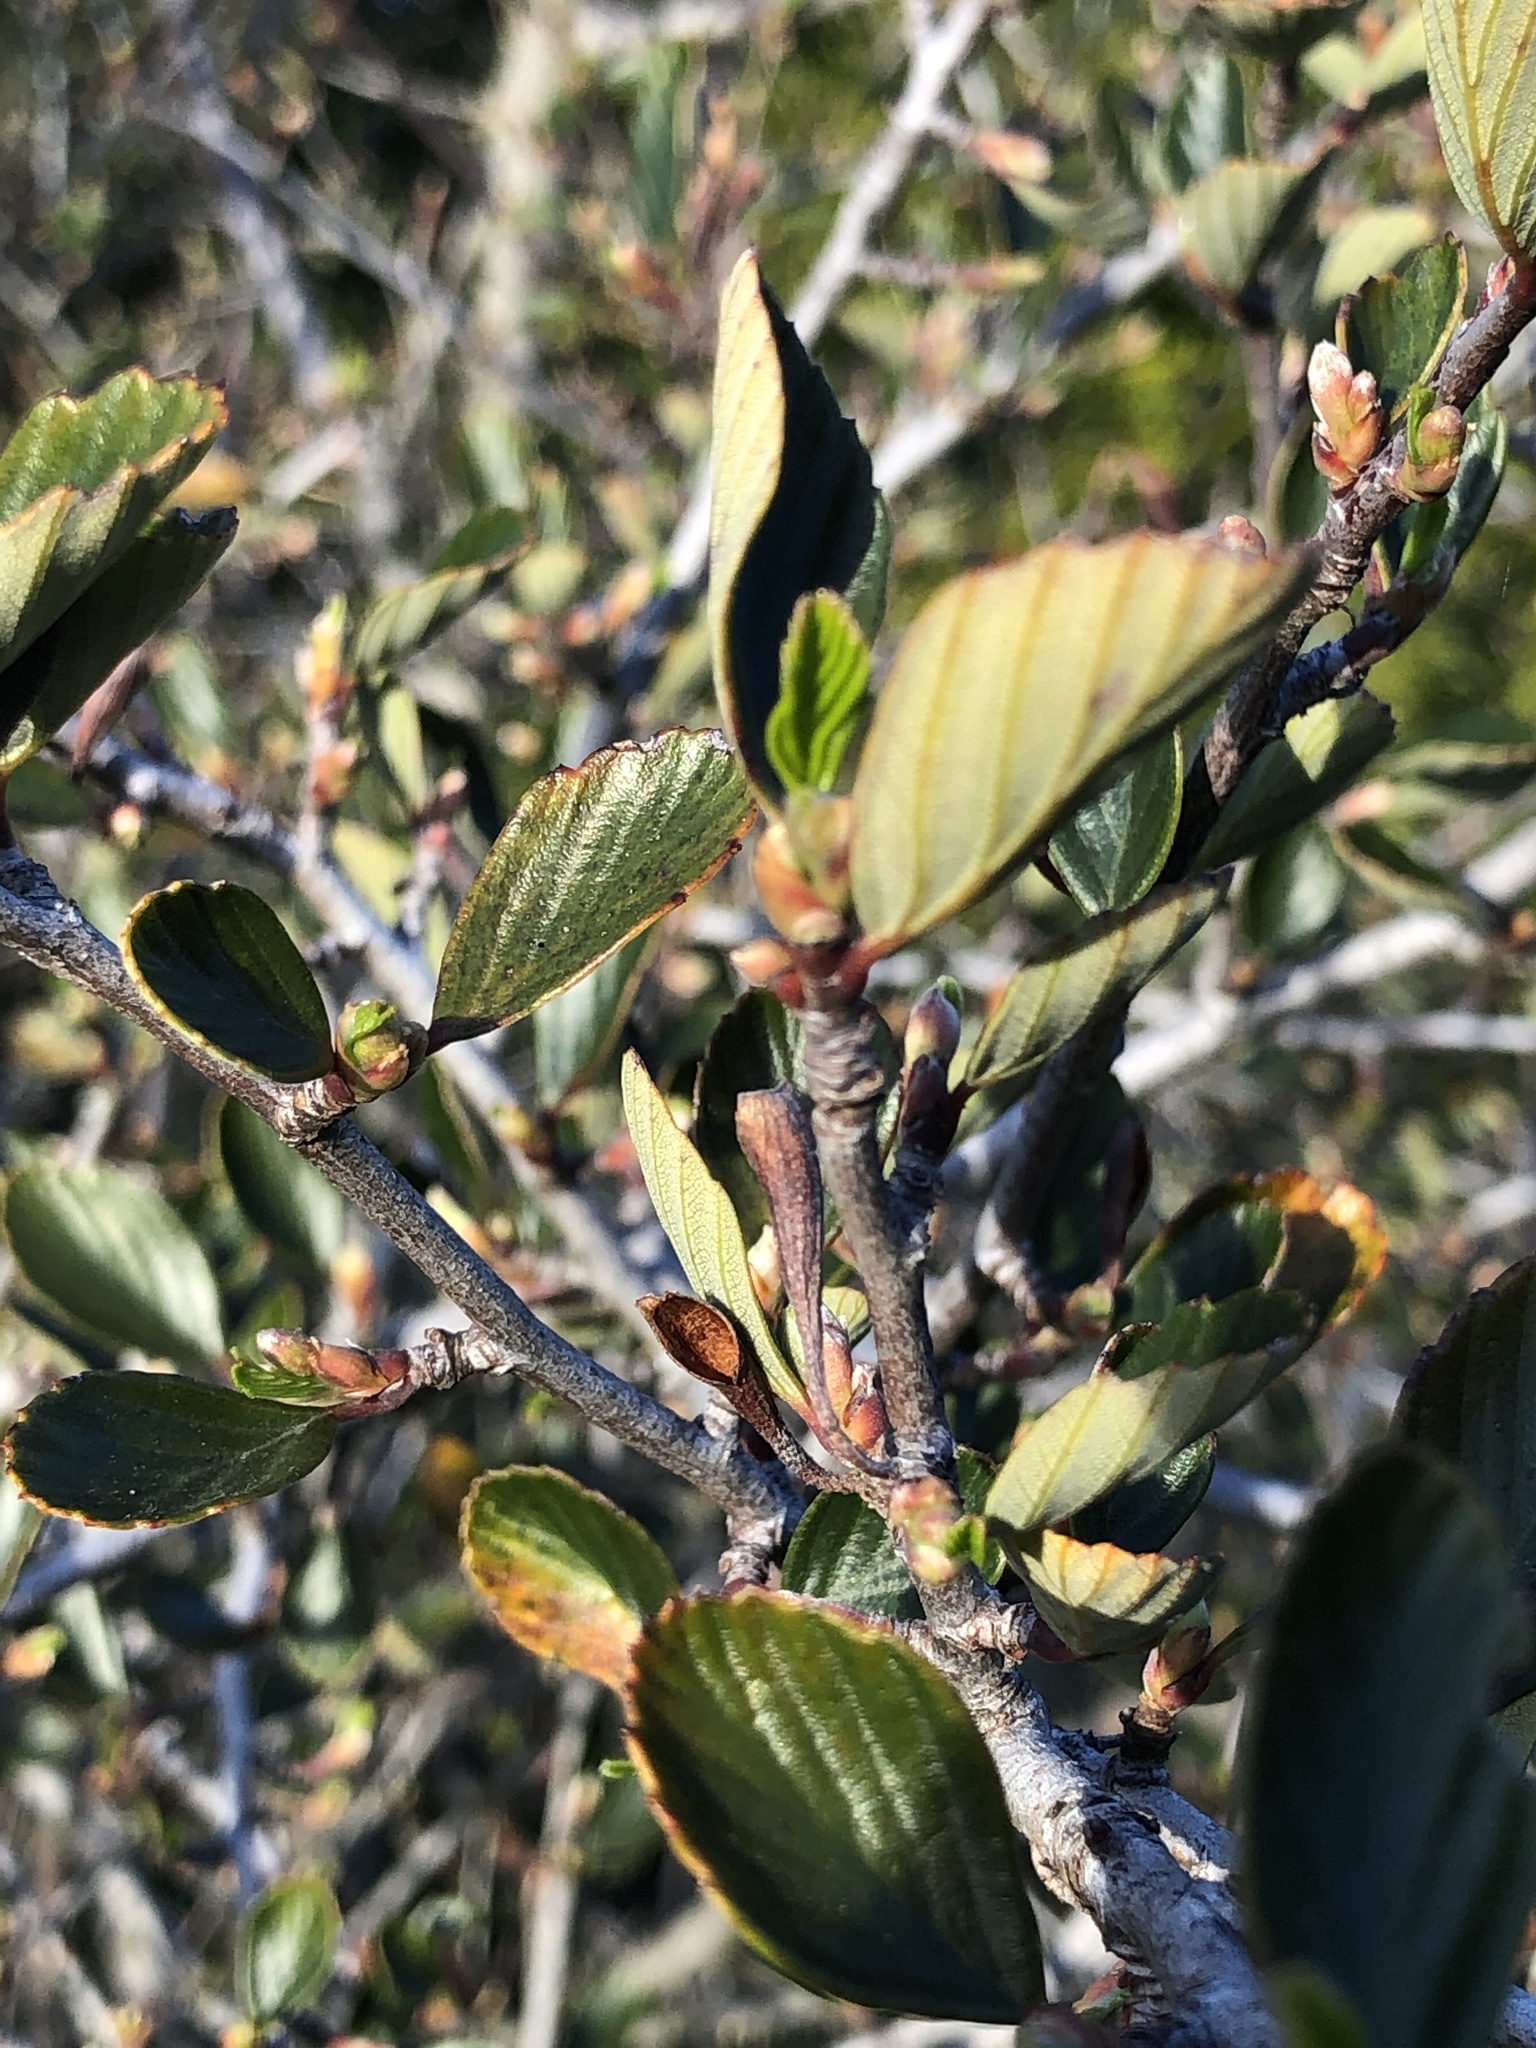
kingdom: Plantae
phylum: Tracheophyta
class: Magnoliopsida
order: Rosales
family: Rosaceae
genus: Cercocarpus
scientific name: Cercocarpus betuloides
